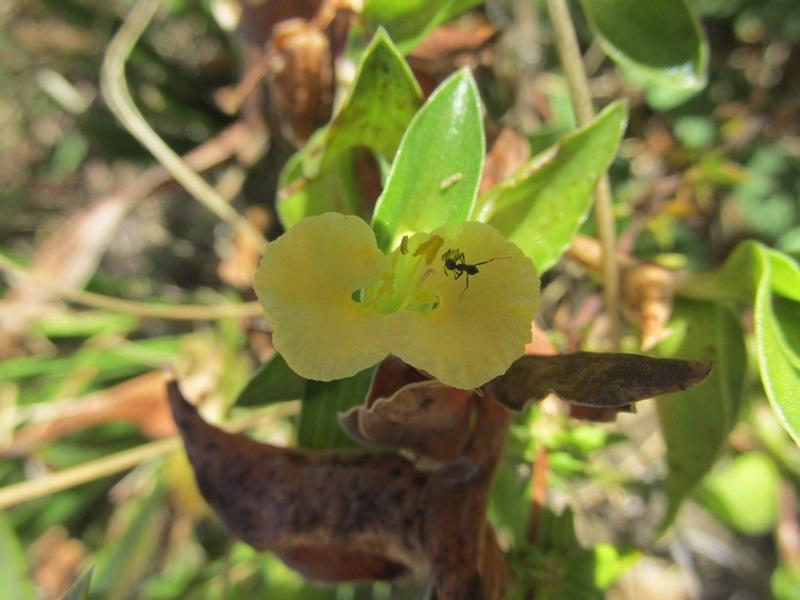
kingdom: Plantae
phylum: Tracheophyta
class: Liliopsida
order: Commelinales
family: Commelinaceae
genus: Commelina
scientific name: Commelina africana
